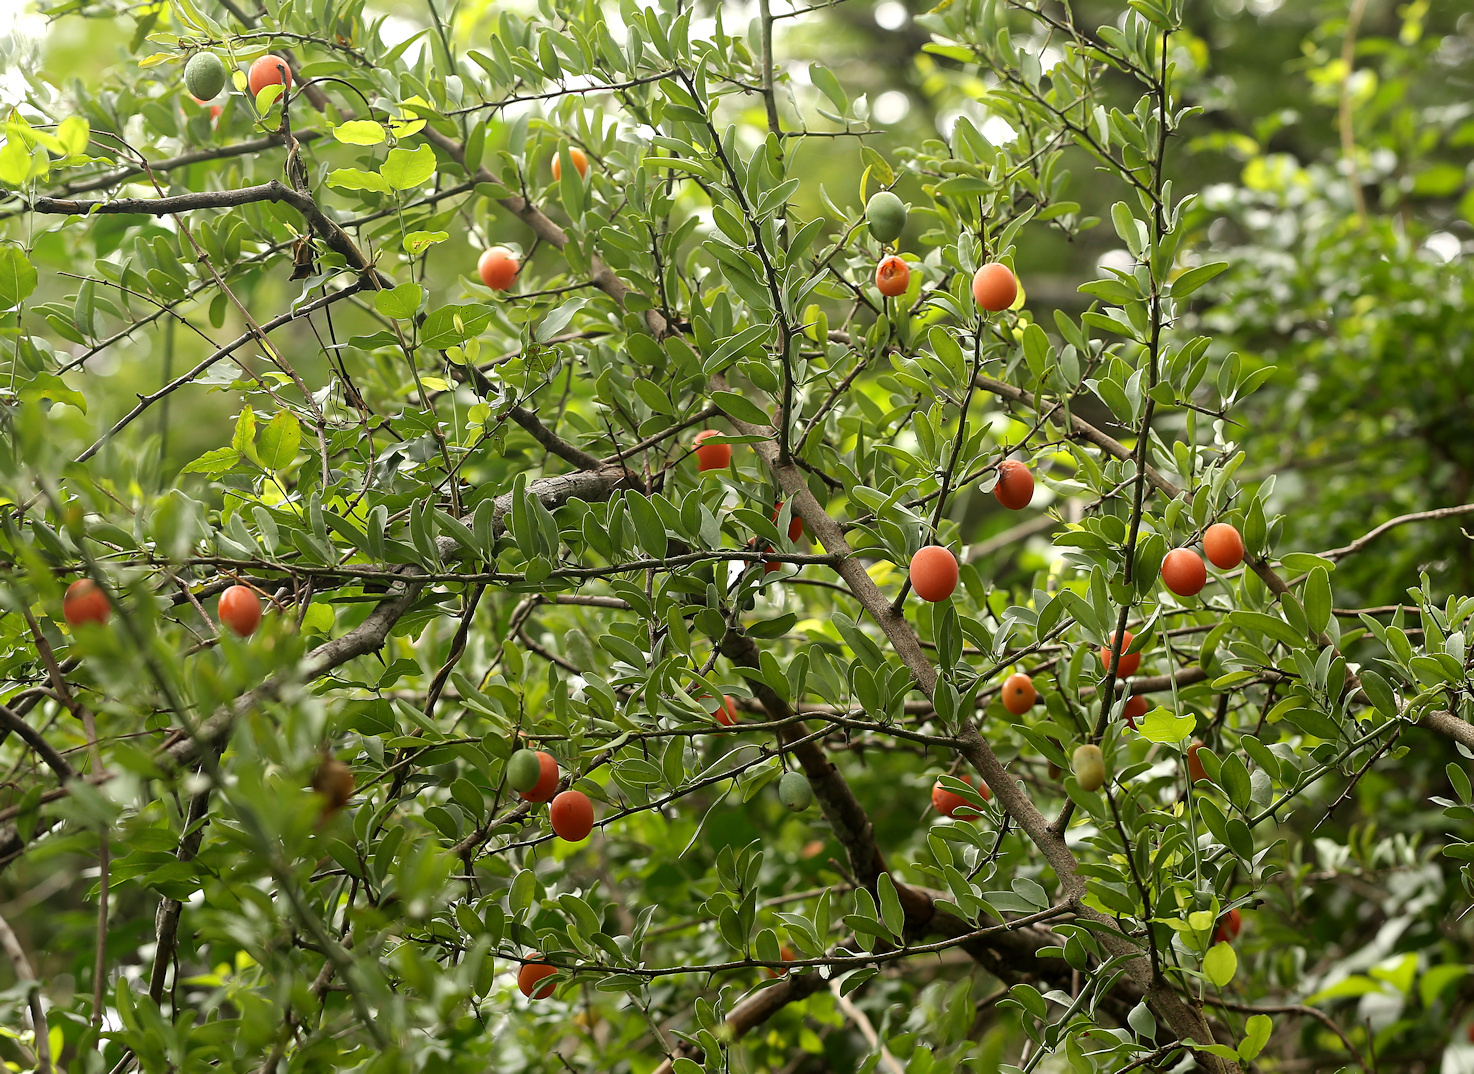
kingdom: Plantae
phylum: Tracheophyta
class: Magnoliopsida
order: Santalales
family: Ximeniaceae
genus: Ximenia
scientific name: Ximenia americana
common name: Tallowwood
